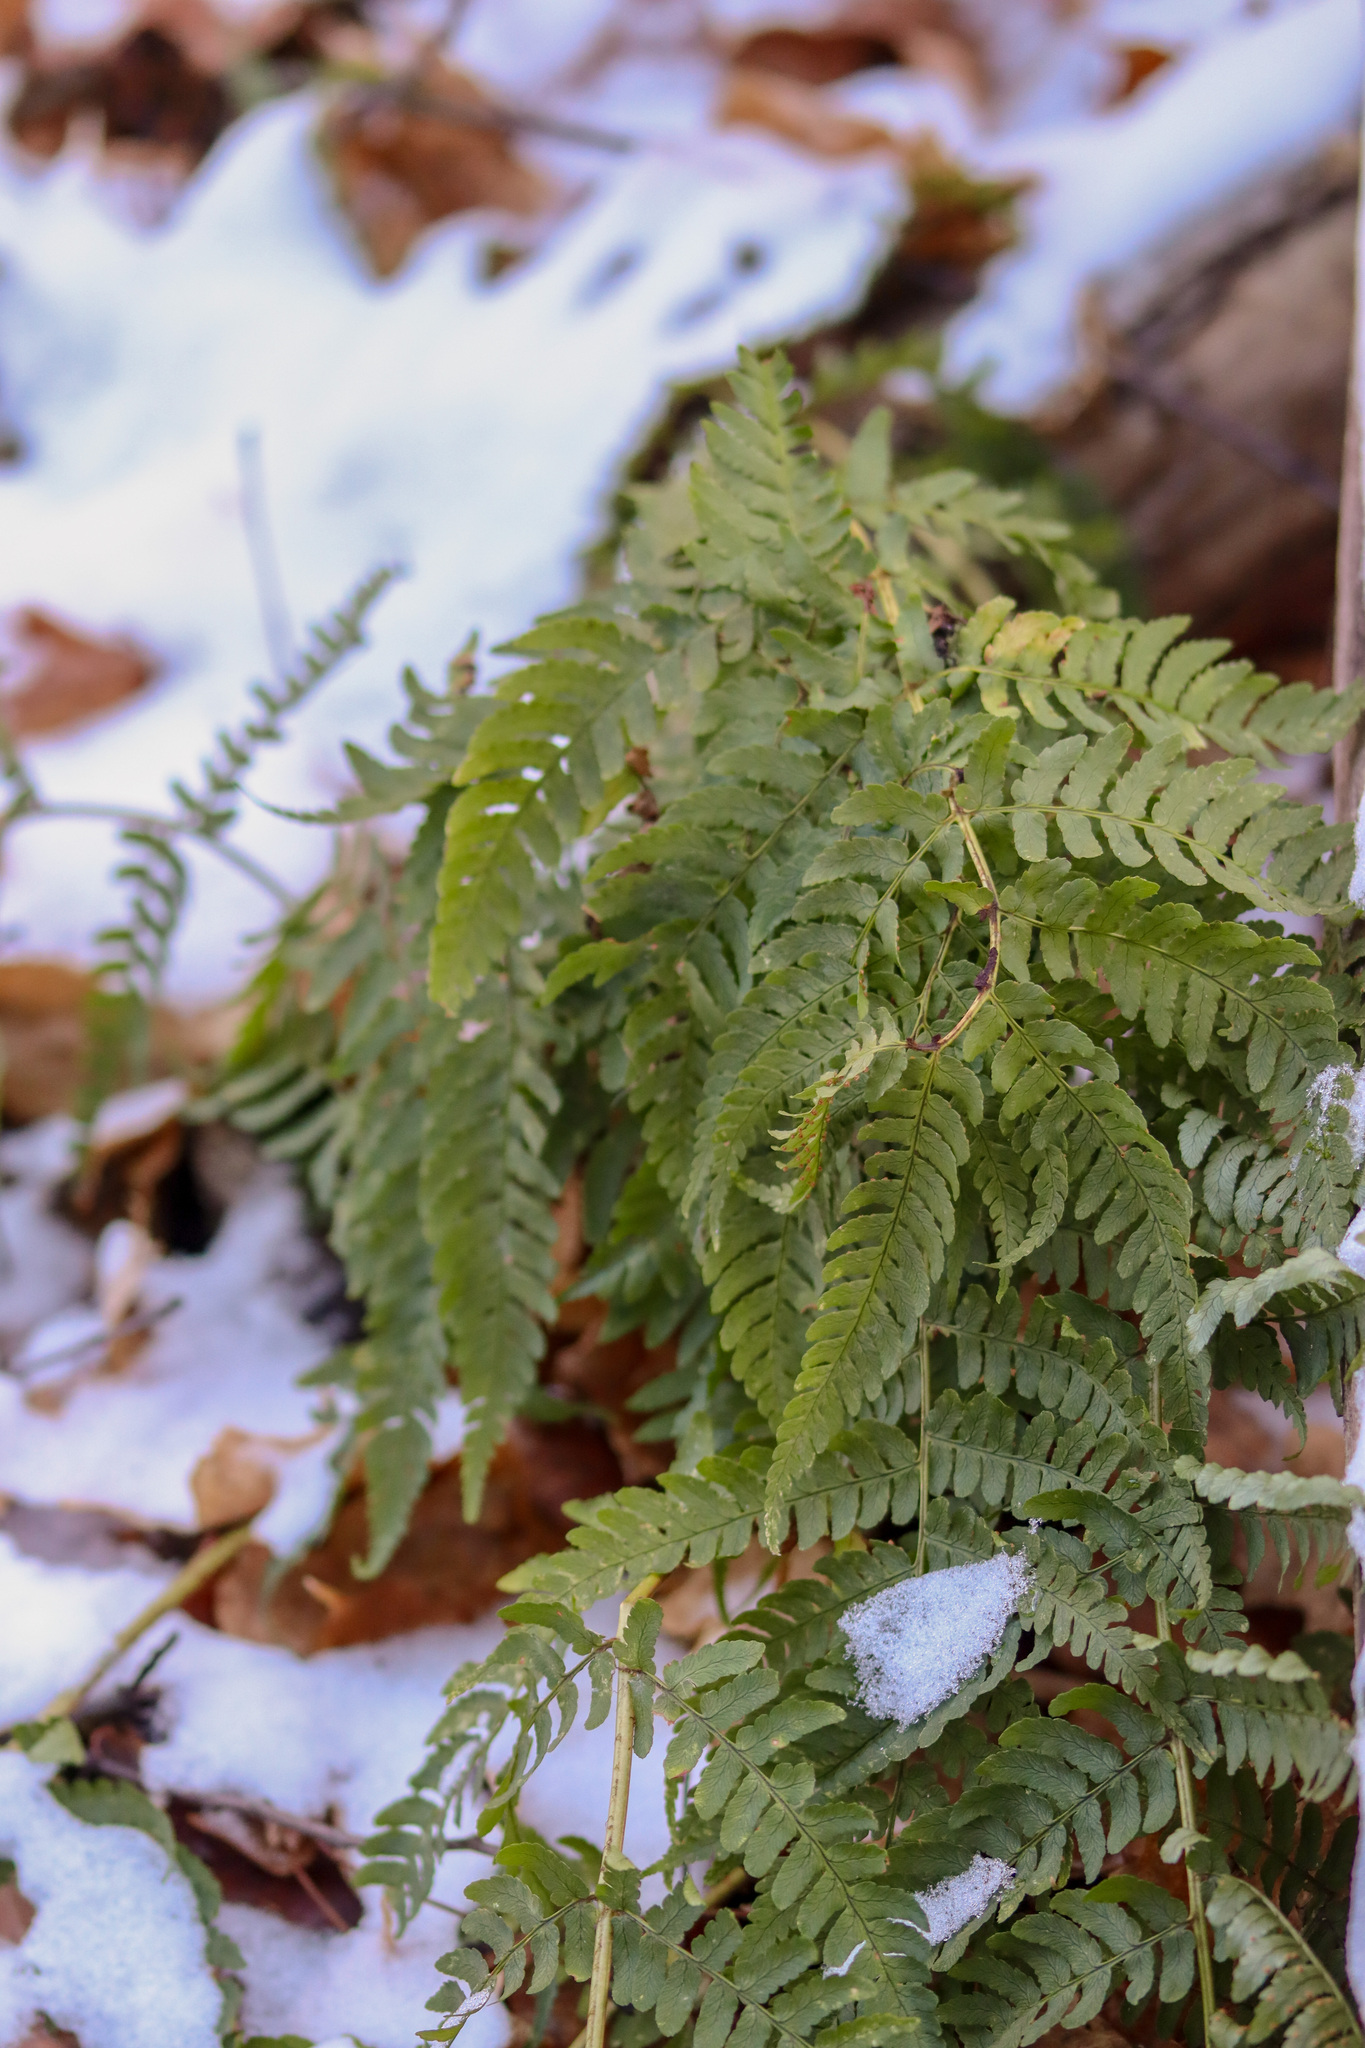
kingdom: Plantae
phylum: Tracheophyta
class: Polypodiopsida
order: Polypodiales
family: Dryopteridaceae
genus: Dryopteris
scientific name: Dryopteris marginalis
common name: Marginal wood fern
